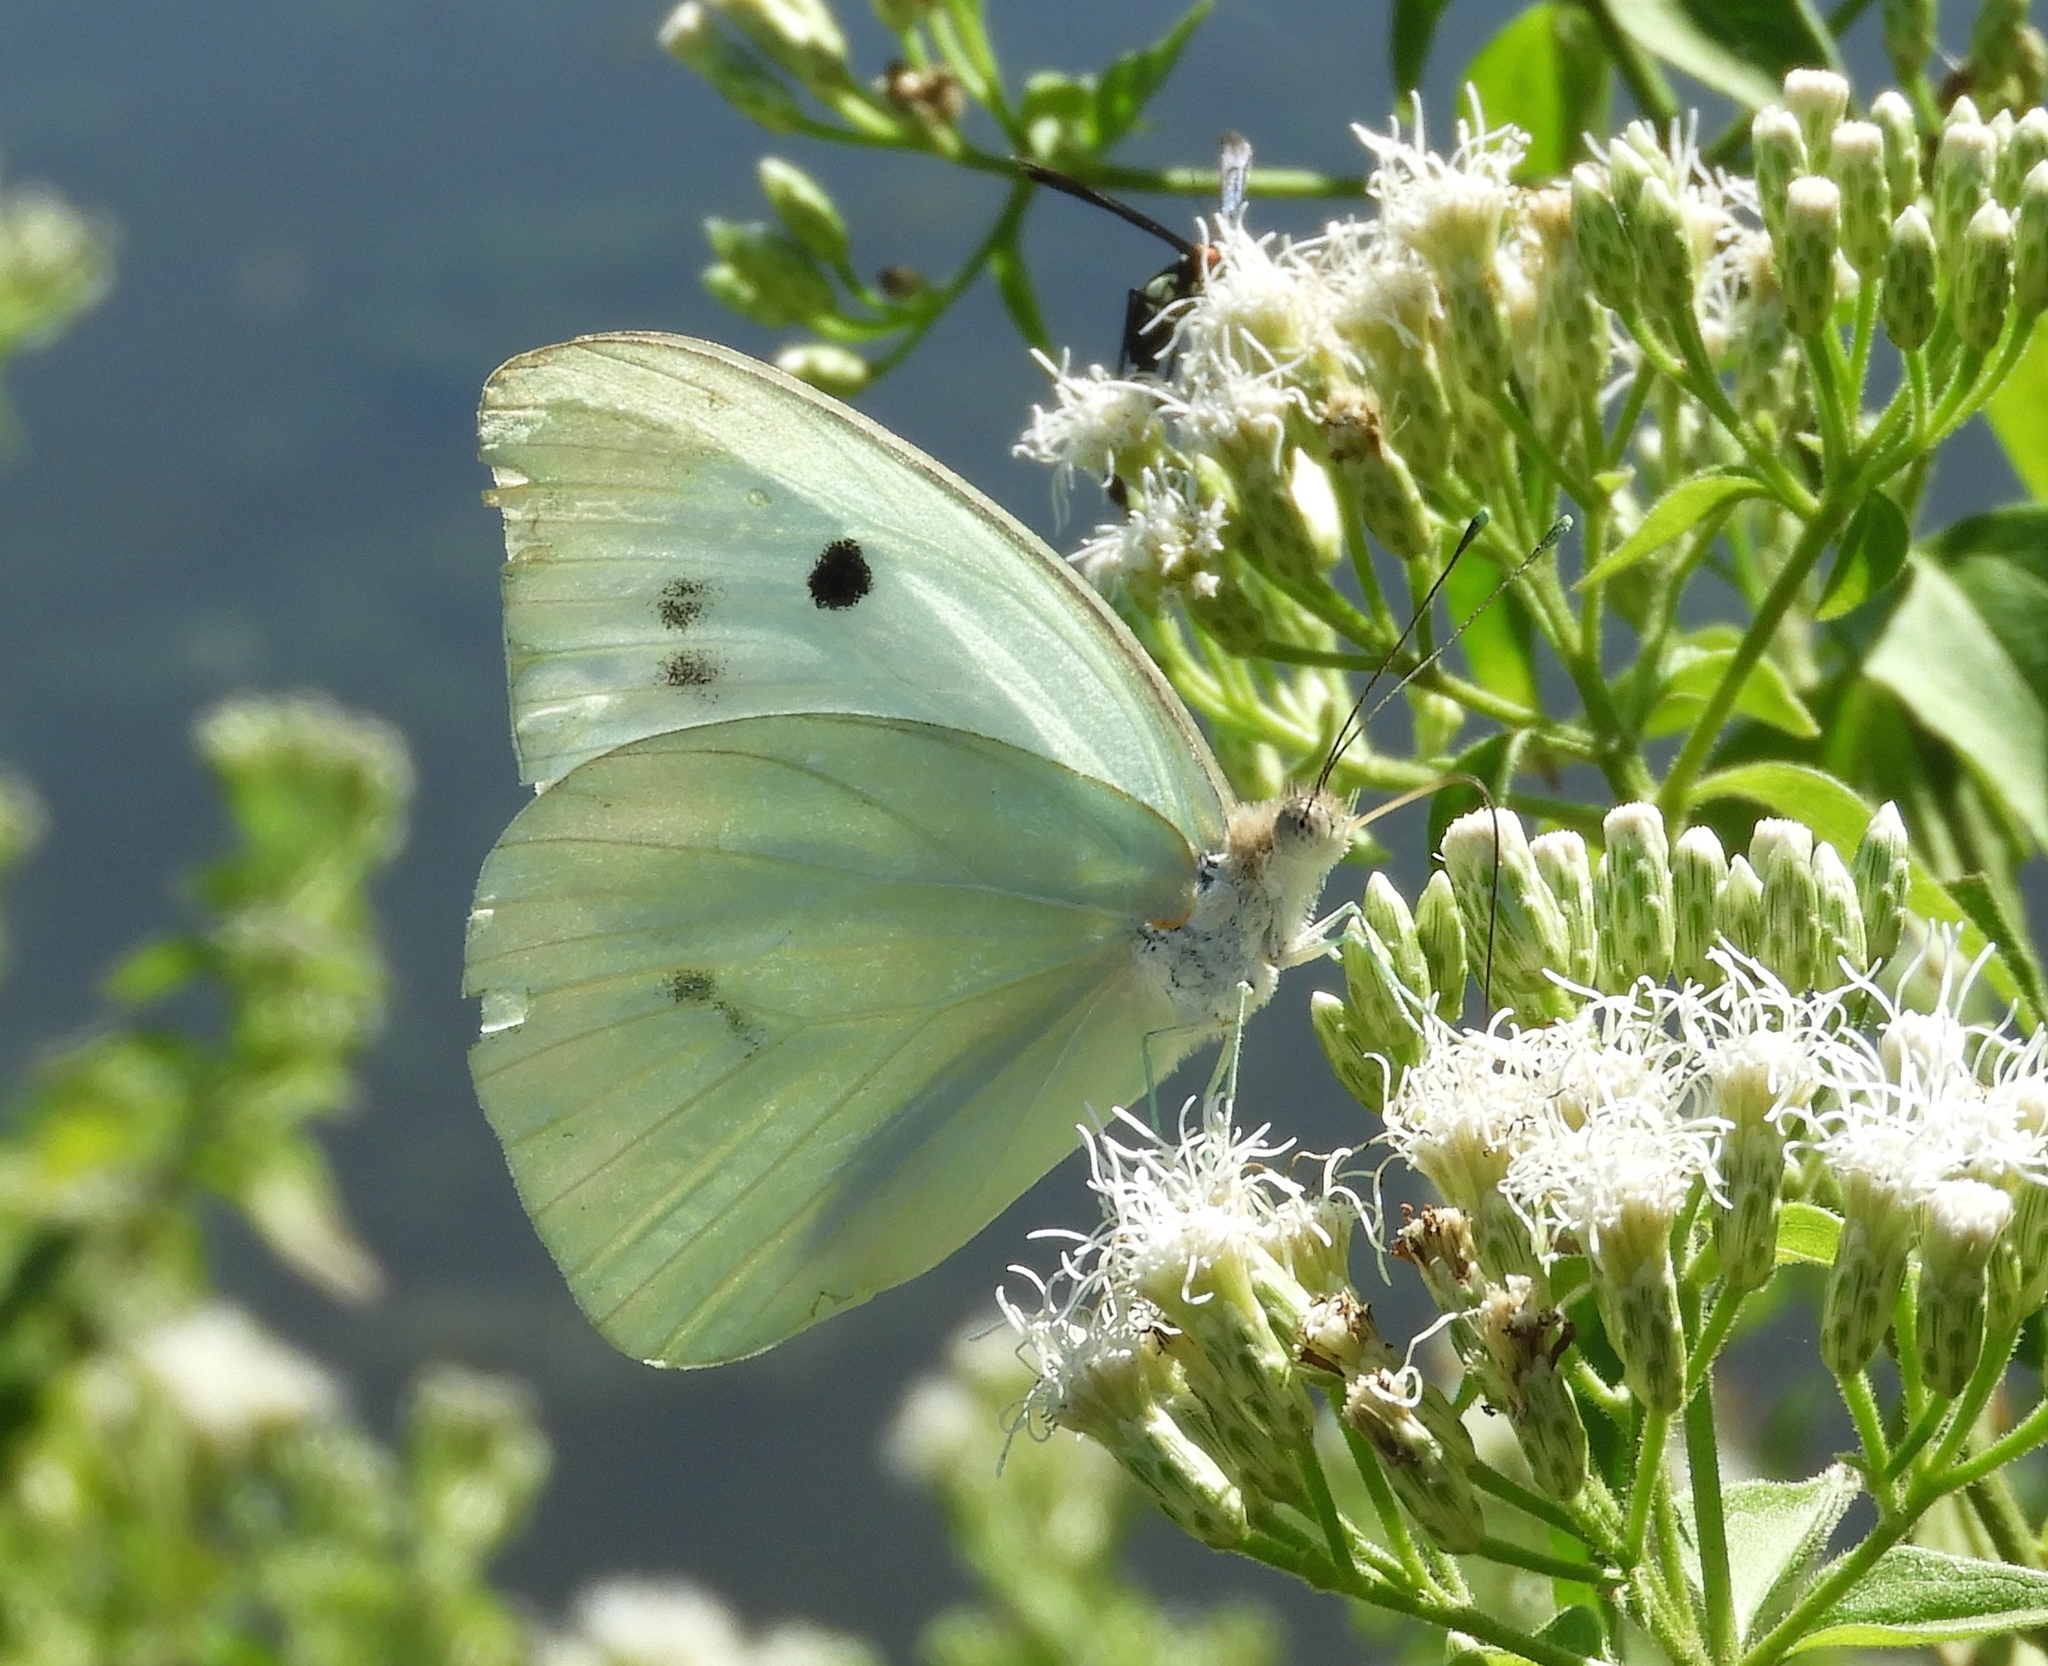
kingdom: Animalia
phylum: Arthropoda
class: Insecta
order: Lepidoptera
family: Pieridae
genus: Ganyra
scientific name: Ganyra josephina
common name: Giant white
